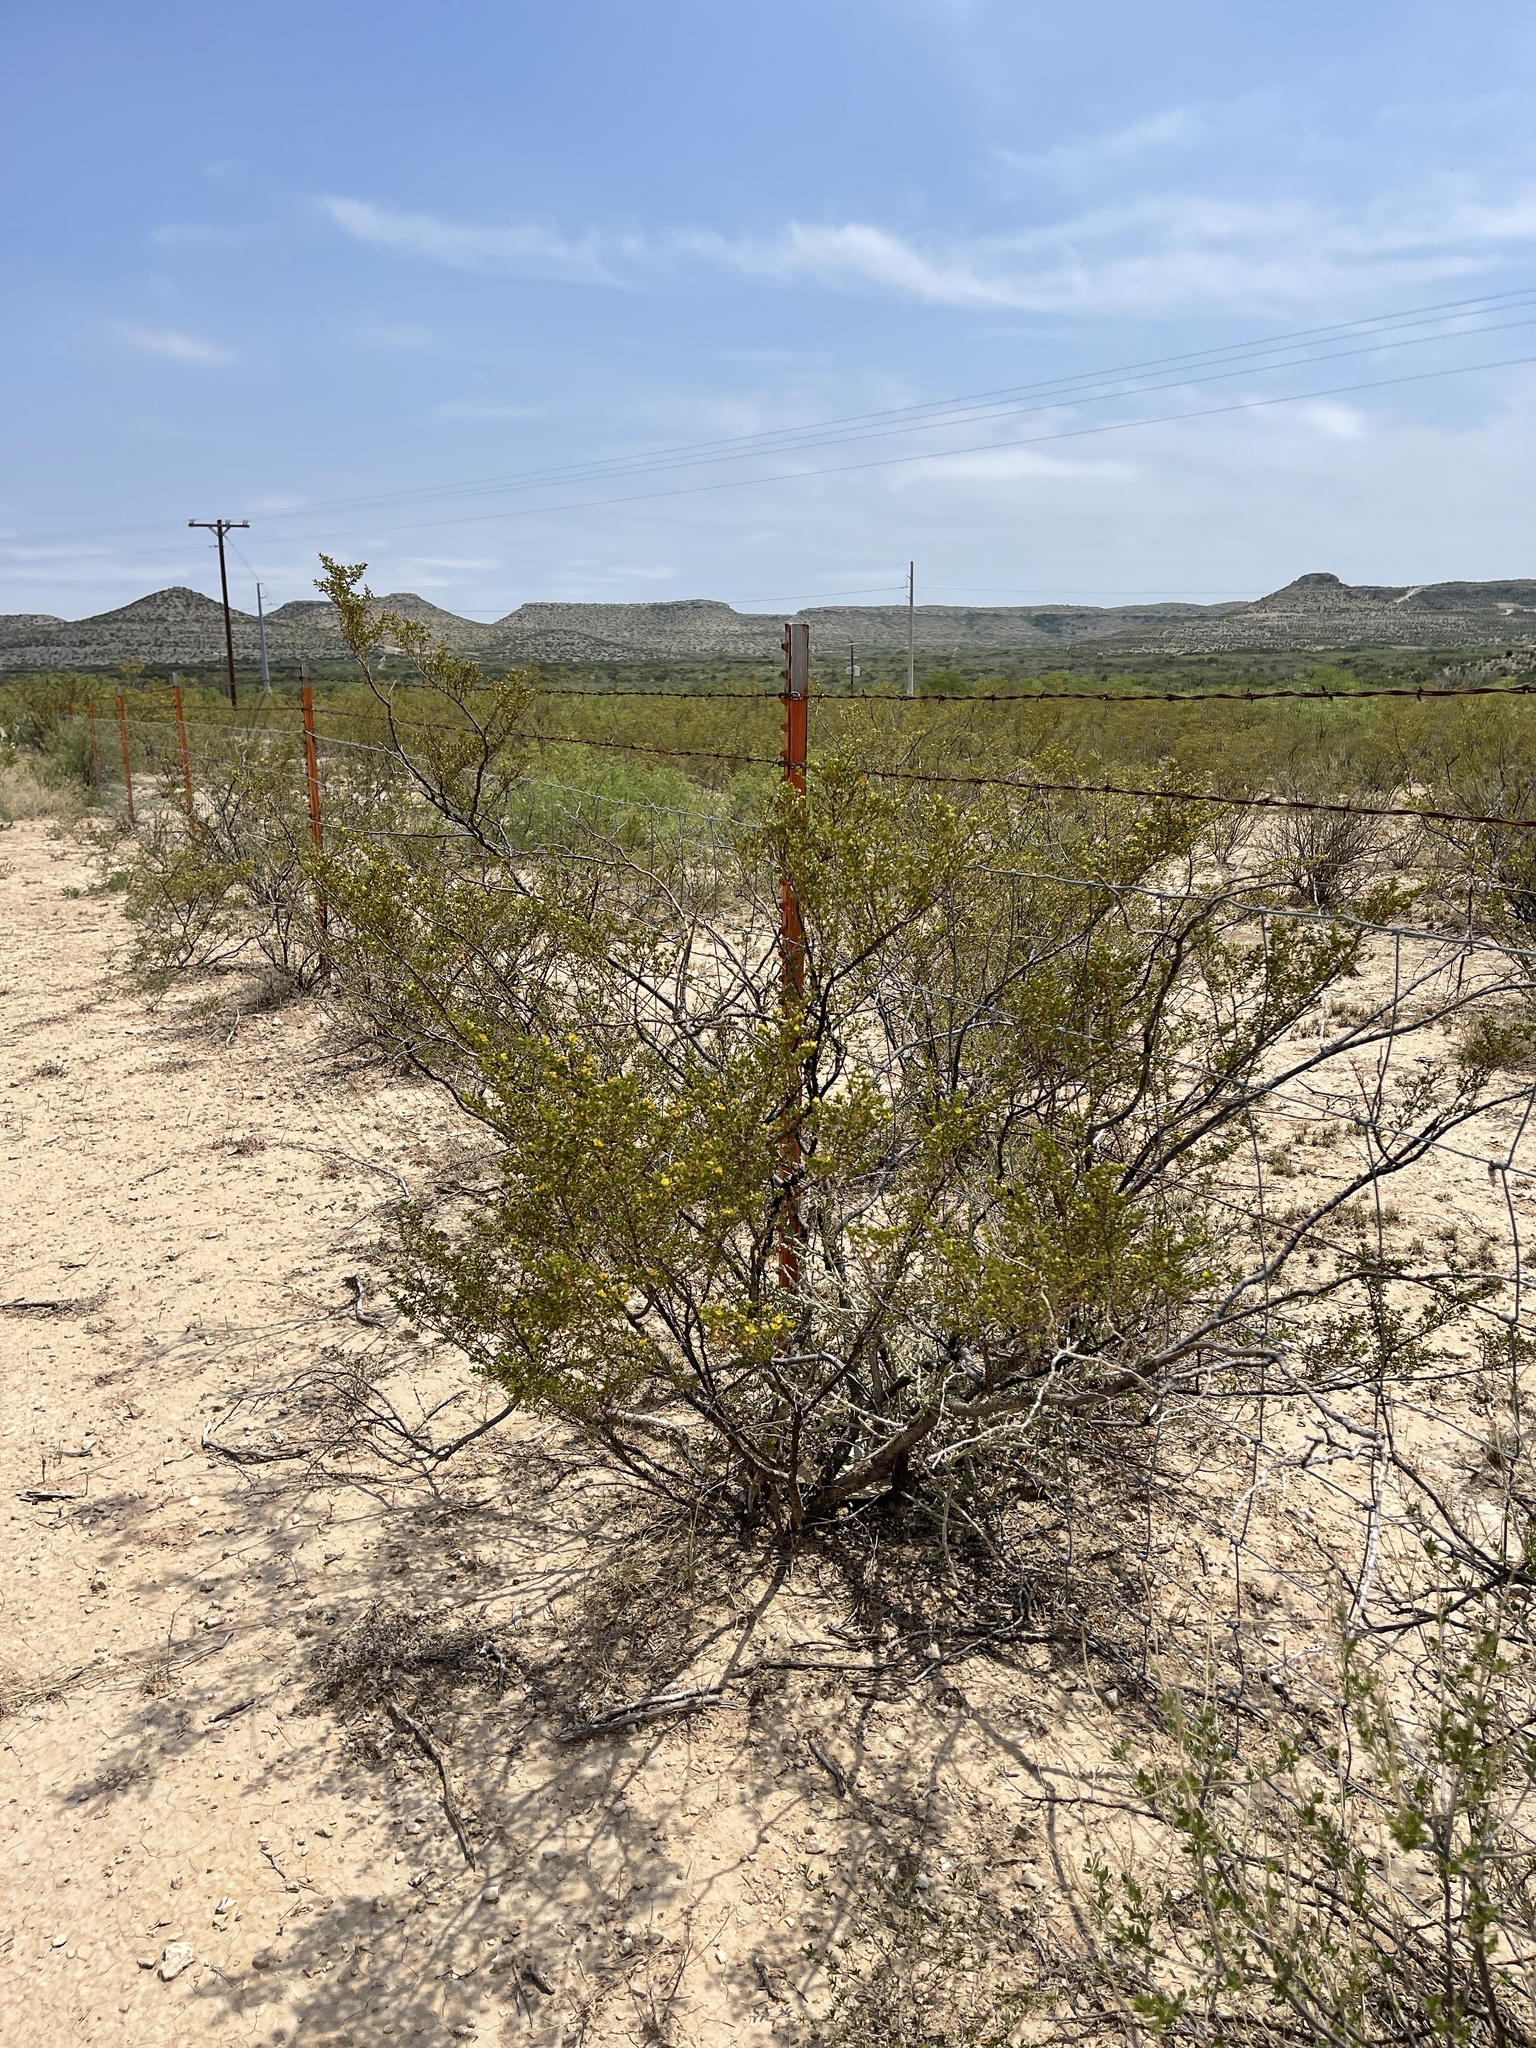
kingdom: Plantae
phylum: Tracheophyta
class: Magnoliopsida
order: Zygophyllales
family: Zygophyllaceae
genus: Larrea
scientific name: Larrea tridentata
